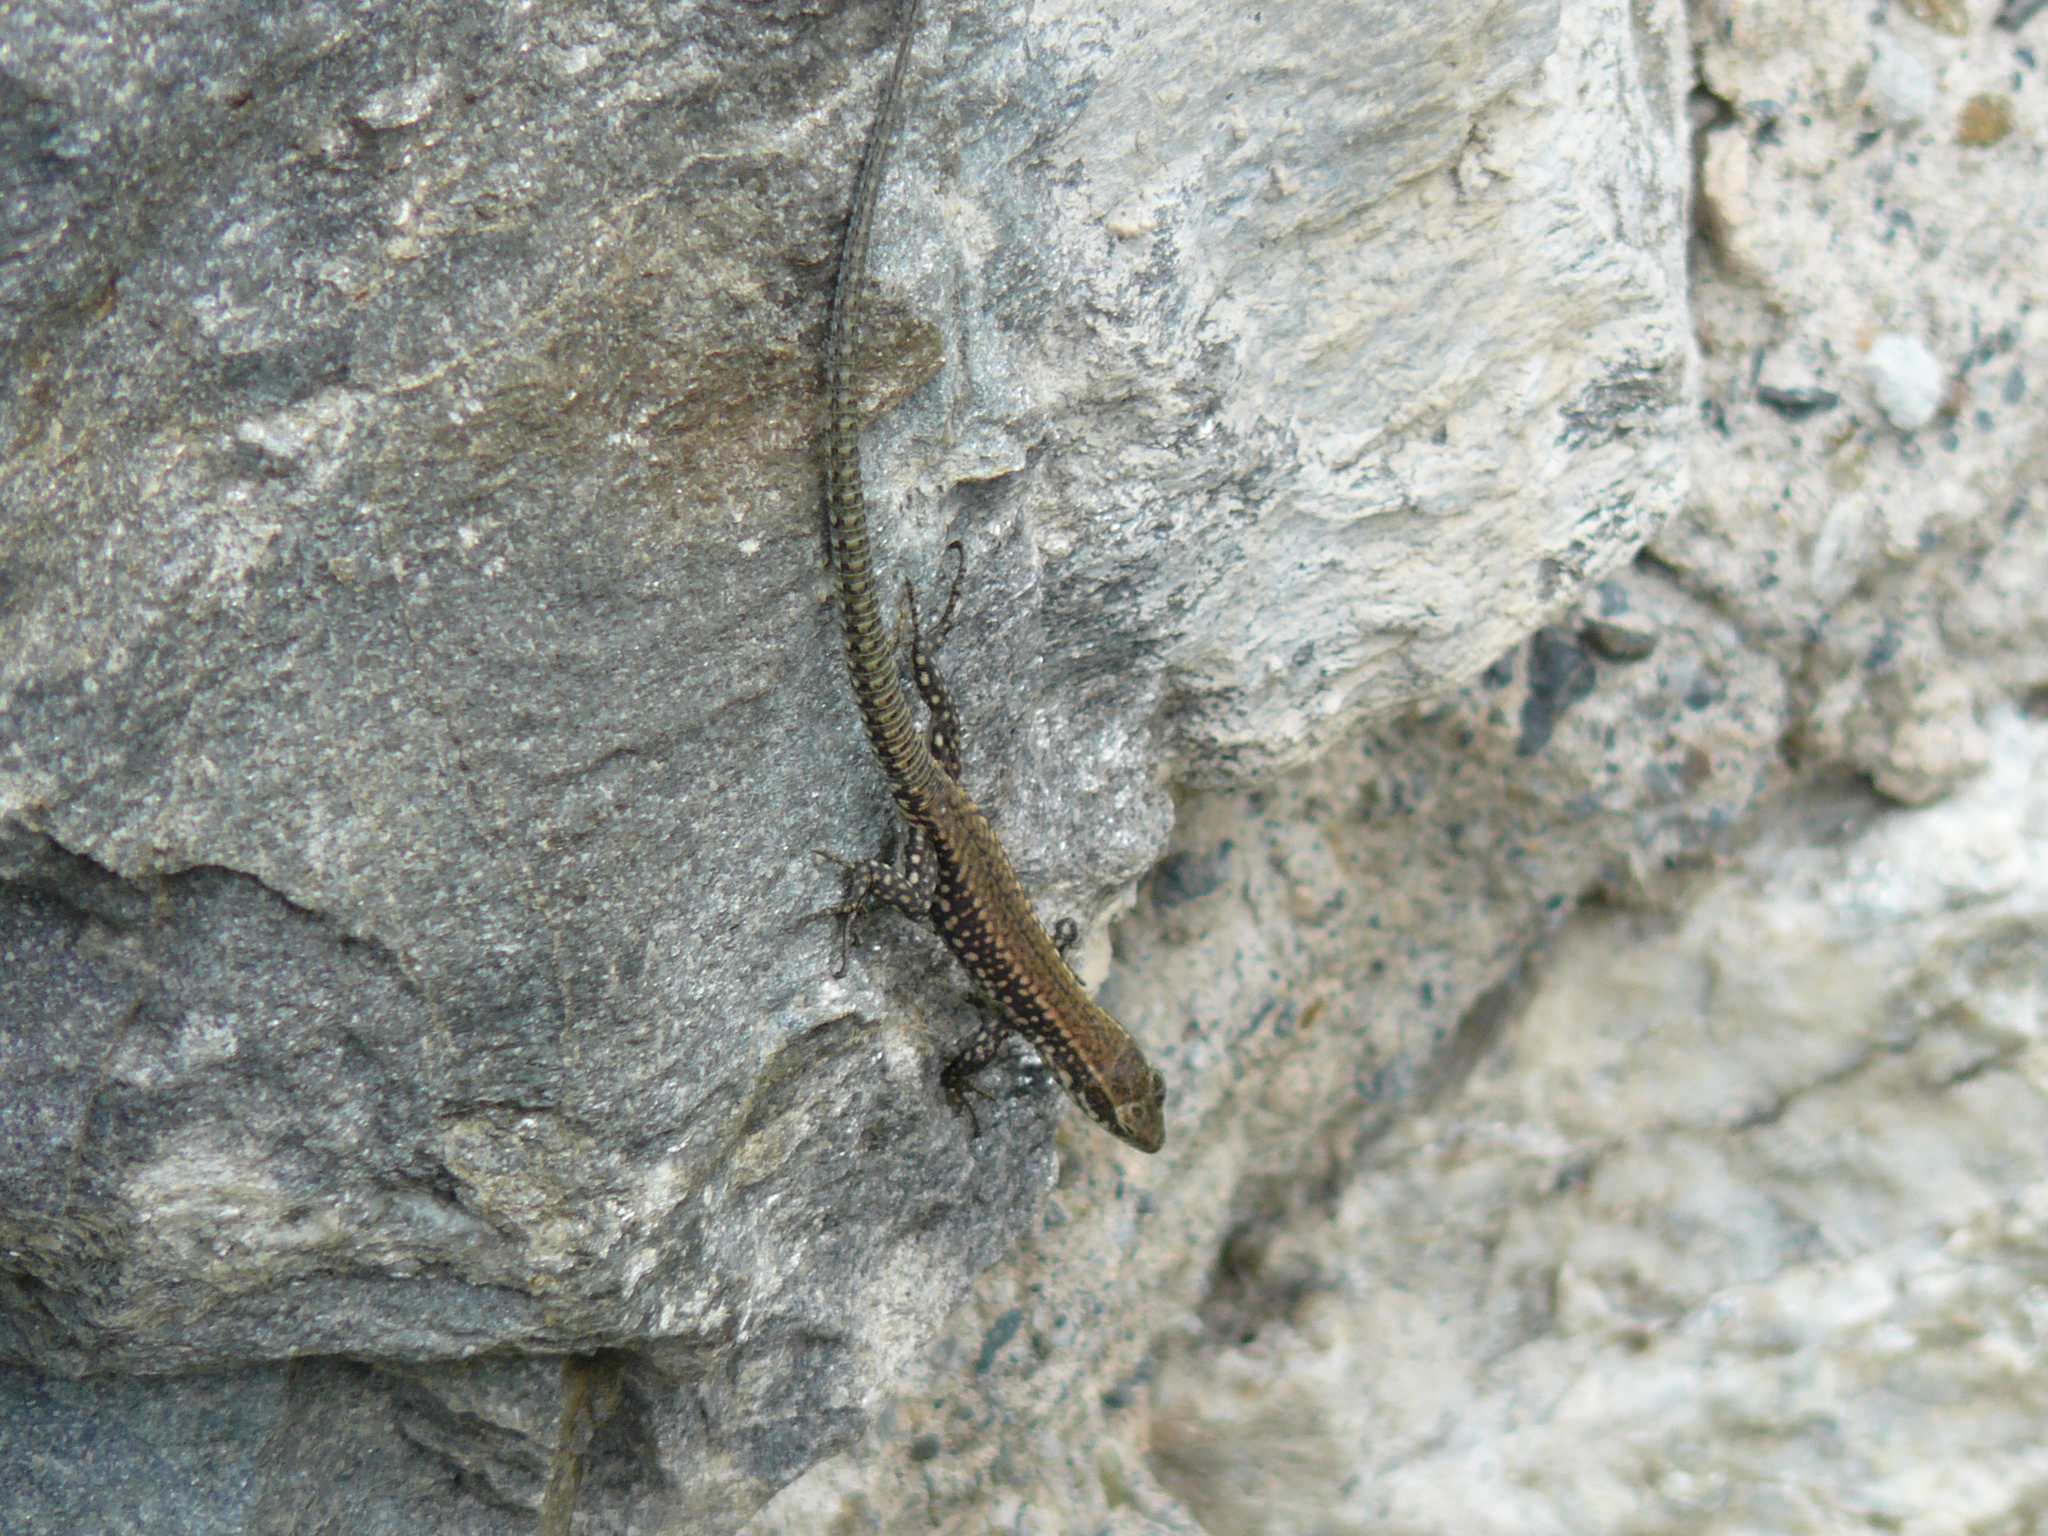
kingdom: Animalia
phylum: Chordata
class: Squamata
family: Lacertidae
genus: Podarcis
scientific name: Podarcis muralis
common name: Common wall lizard
